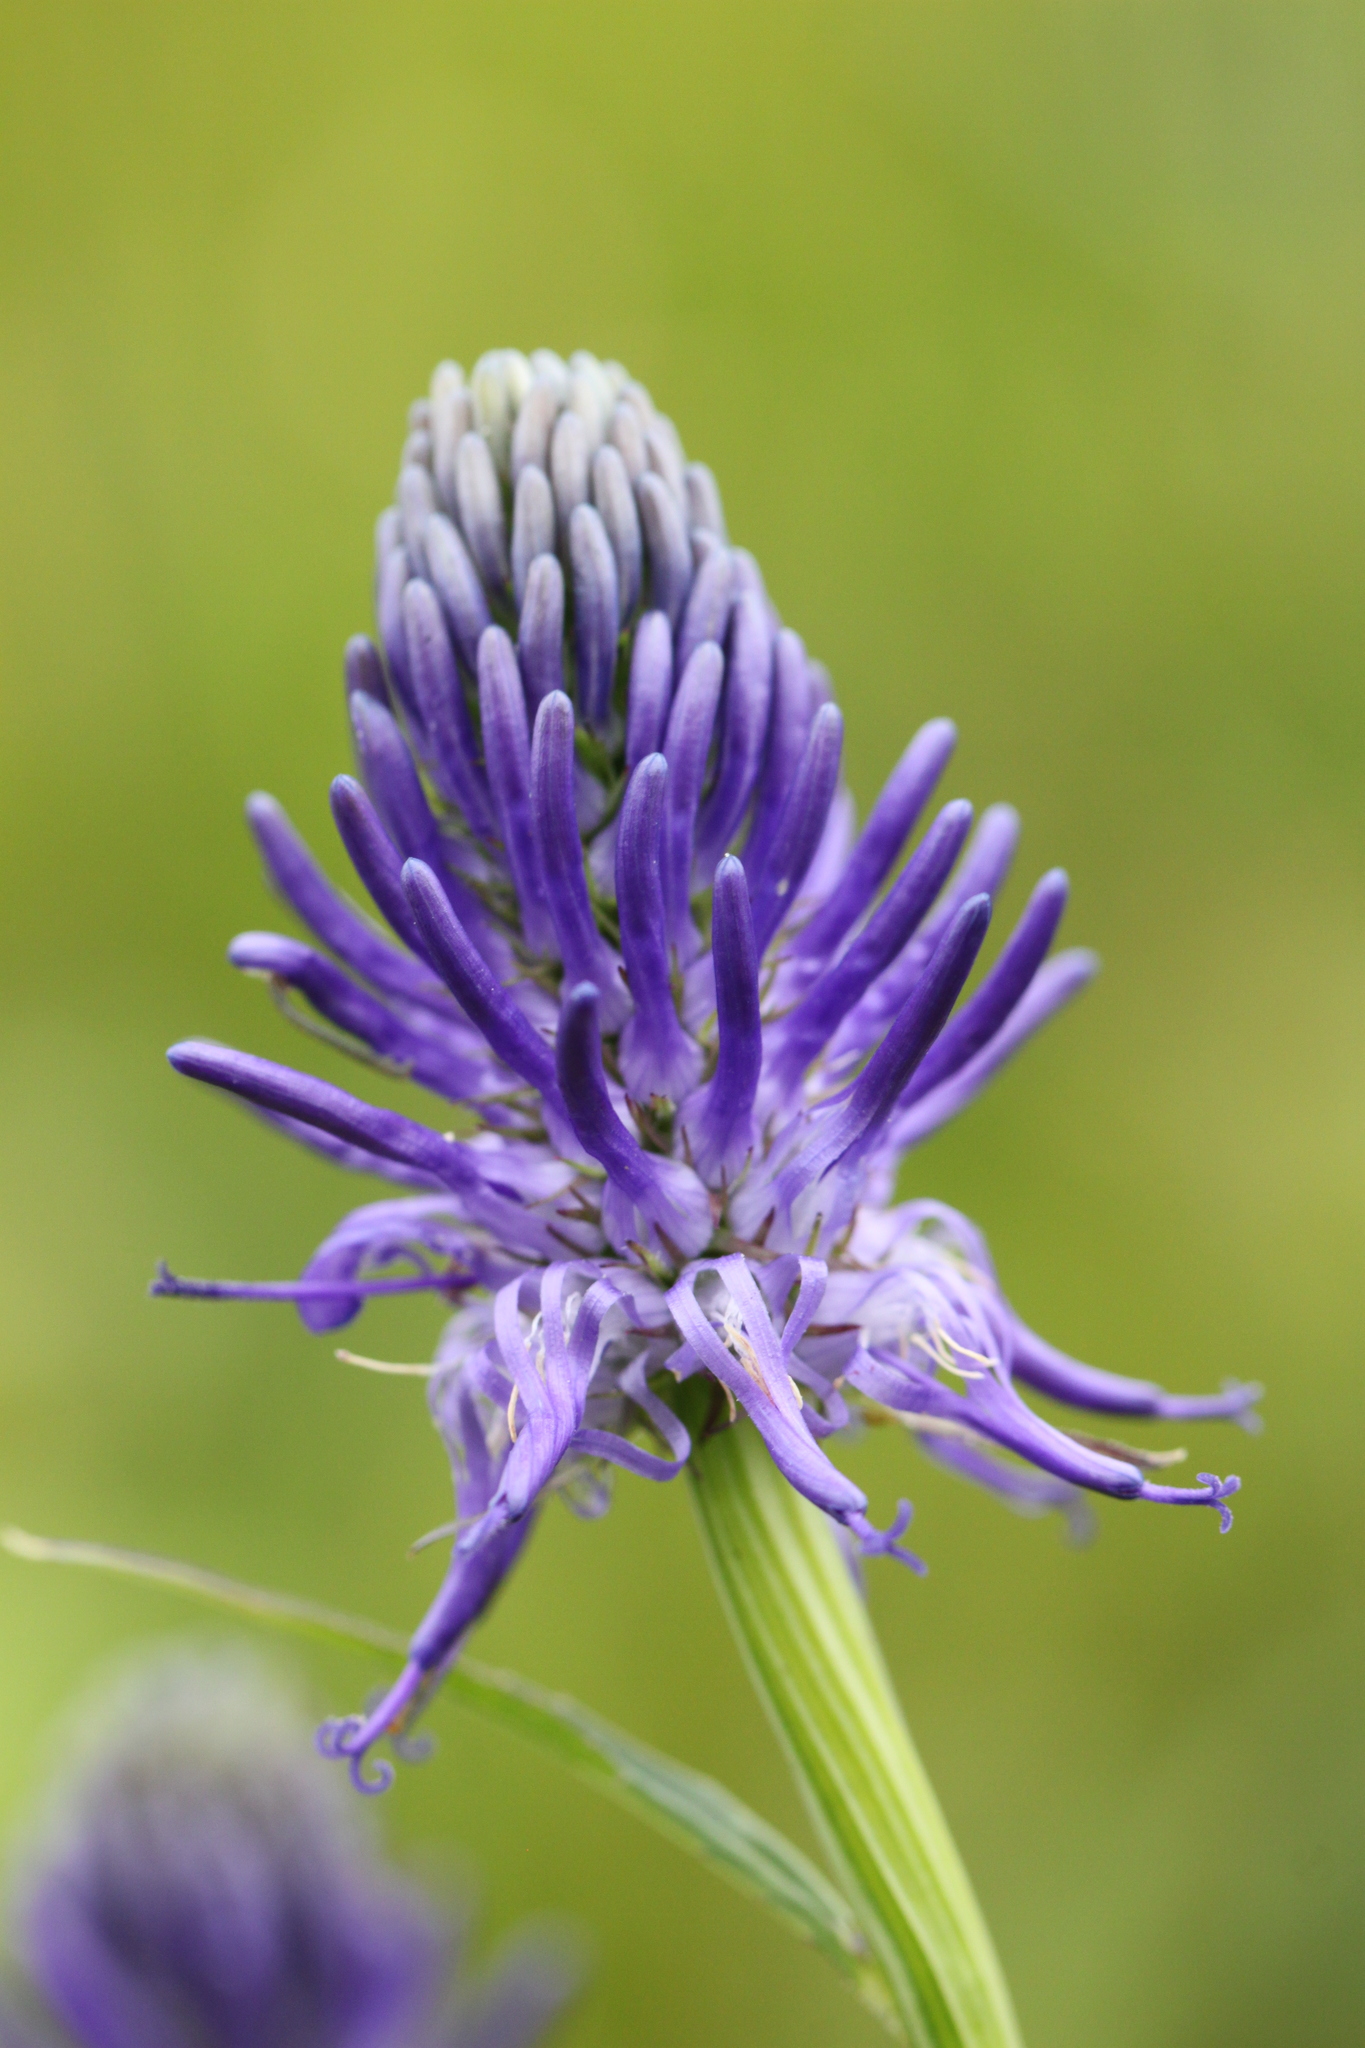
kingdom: Plantae
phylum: Tracheophyta
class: Magnoliopsida
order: Asterales
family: Campanulaceae
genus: Phyteuma
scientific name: Phyteuma betonicifolium
